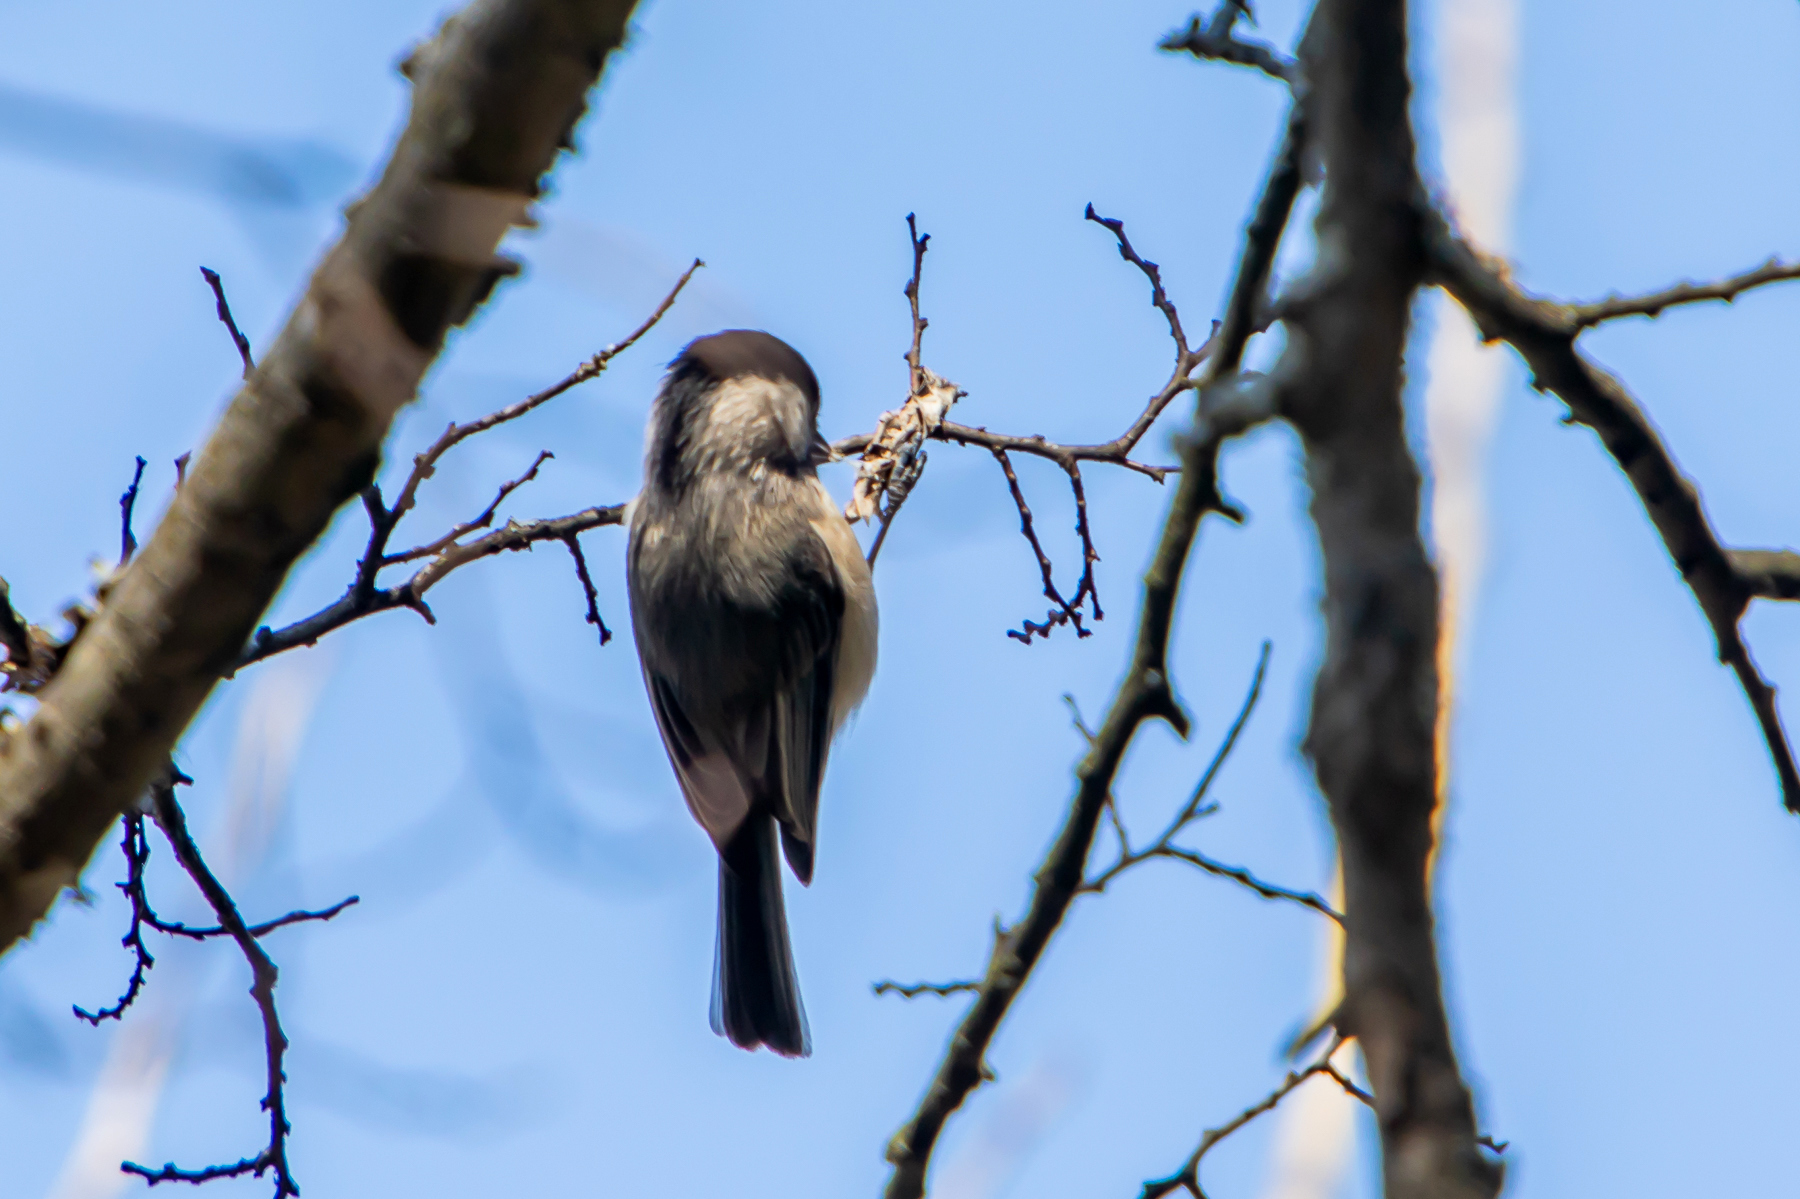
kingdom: Animalia
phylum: Chordata
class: Aves
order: Passeriformes
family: Paridae
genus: Poecile
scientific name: Poecile carolinensis
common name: Carolina chickadee
